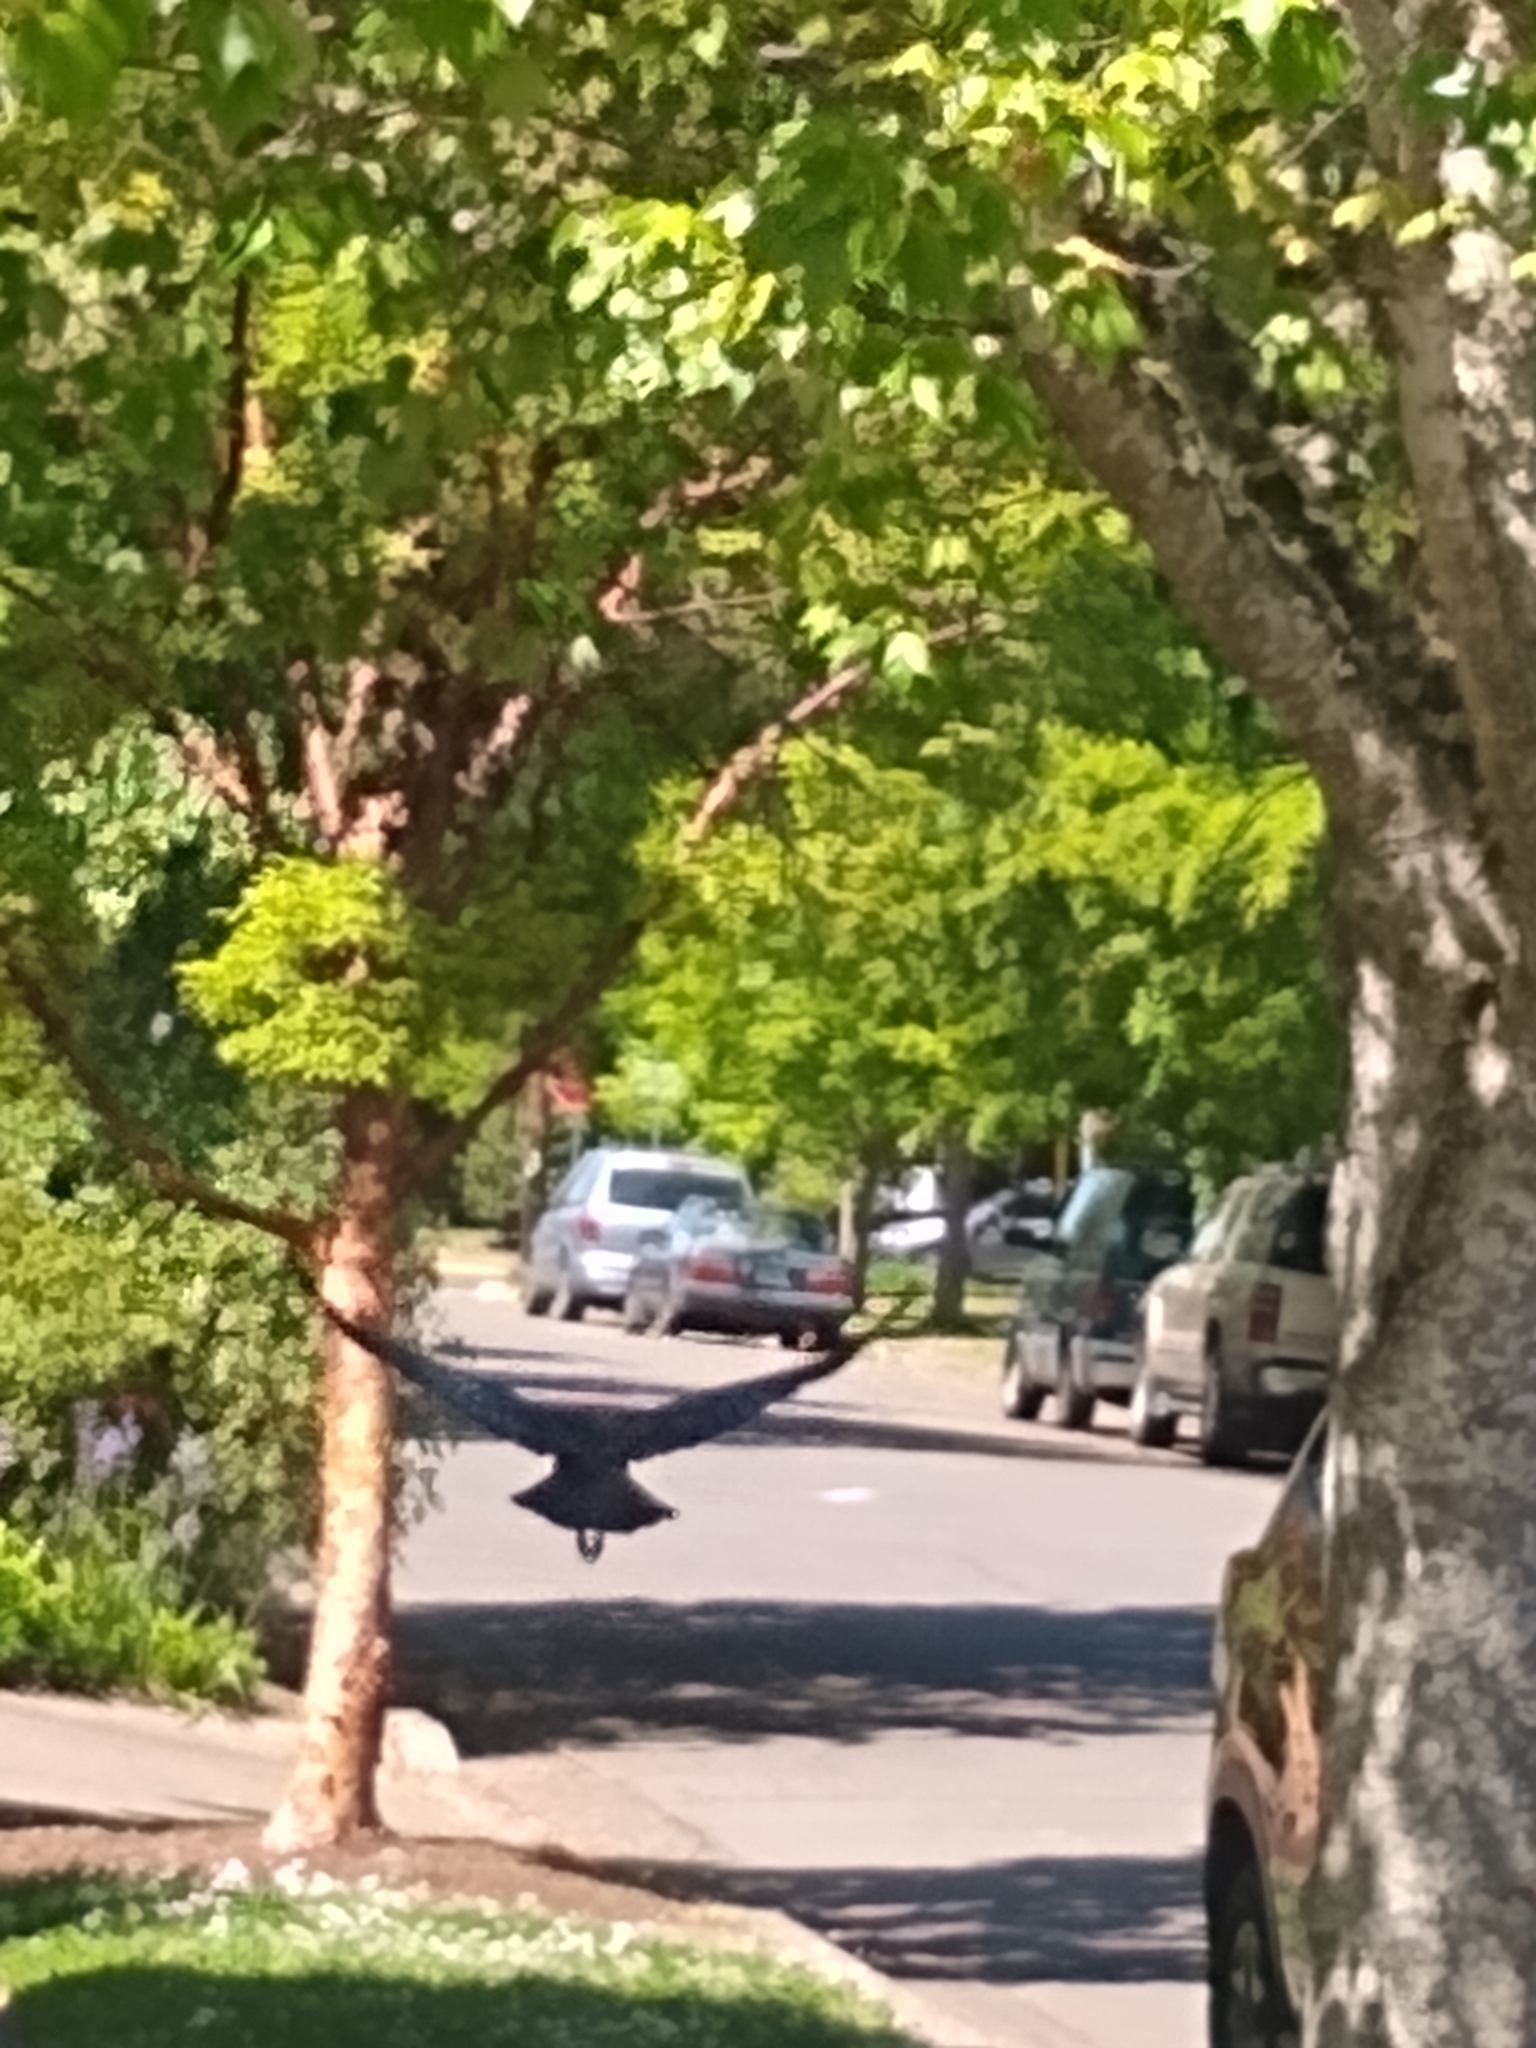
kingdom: Animalia
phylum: Chordata
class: Aves
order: Passeriformes
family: Corvidae
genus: Corvus
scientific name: Corvus brachyrhynchos
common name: American crow
